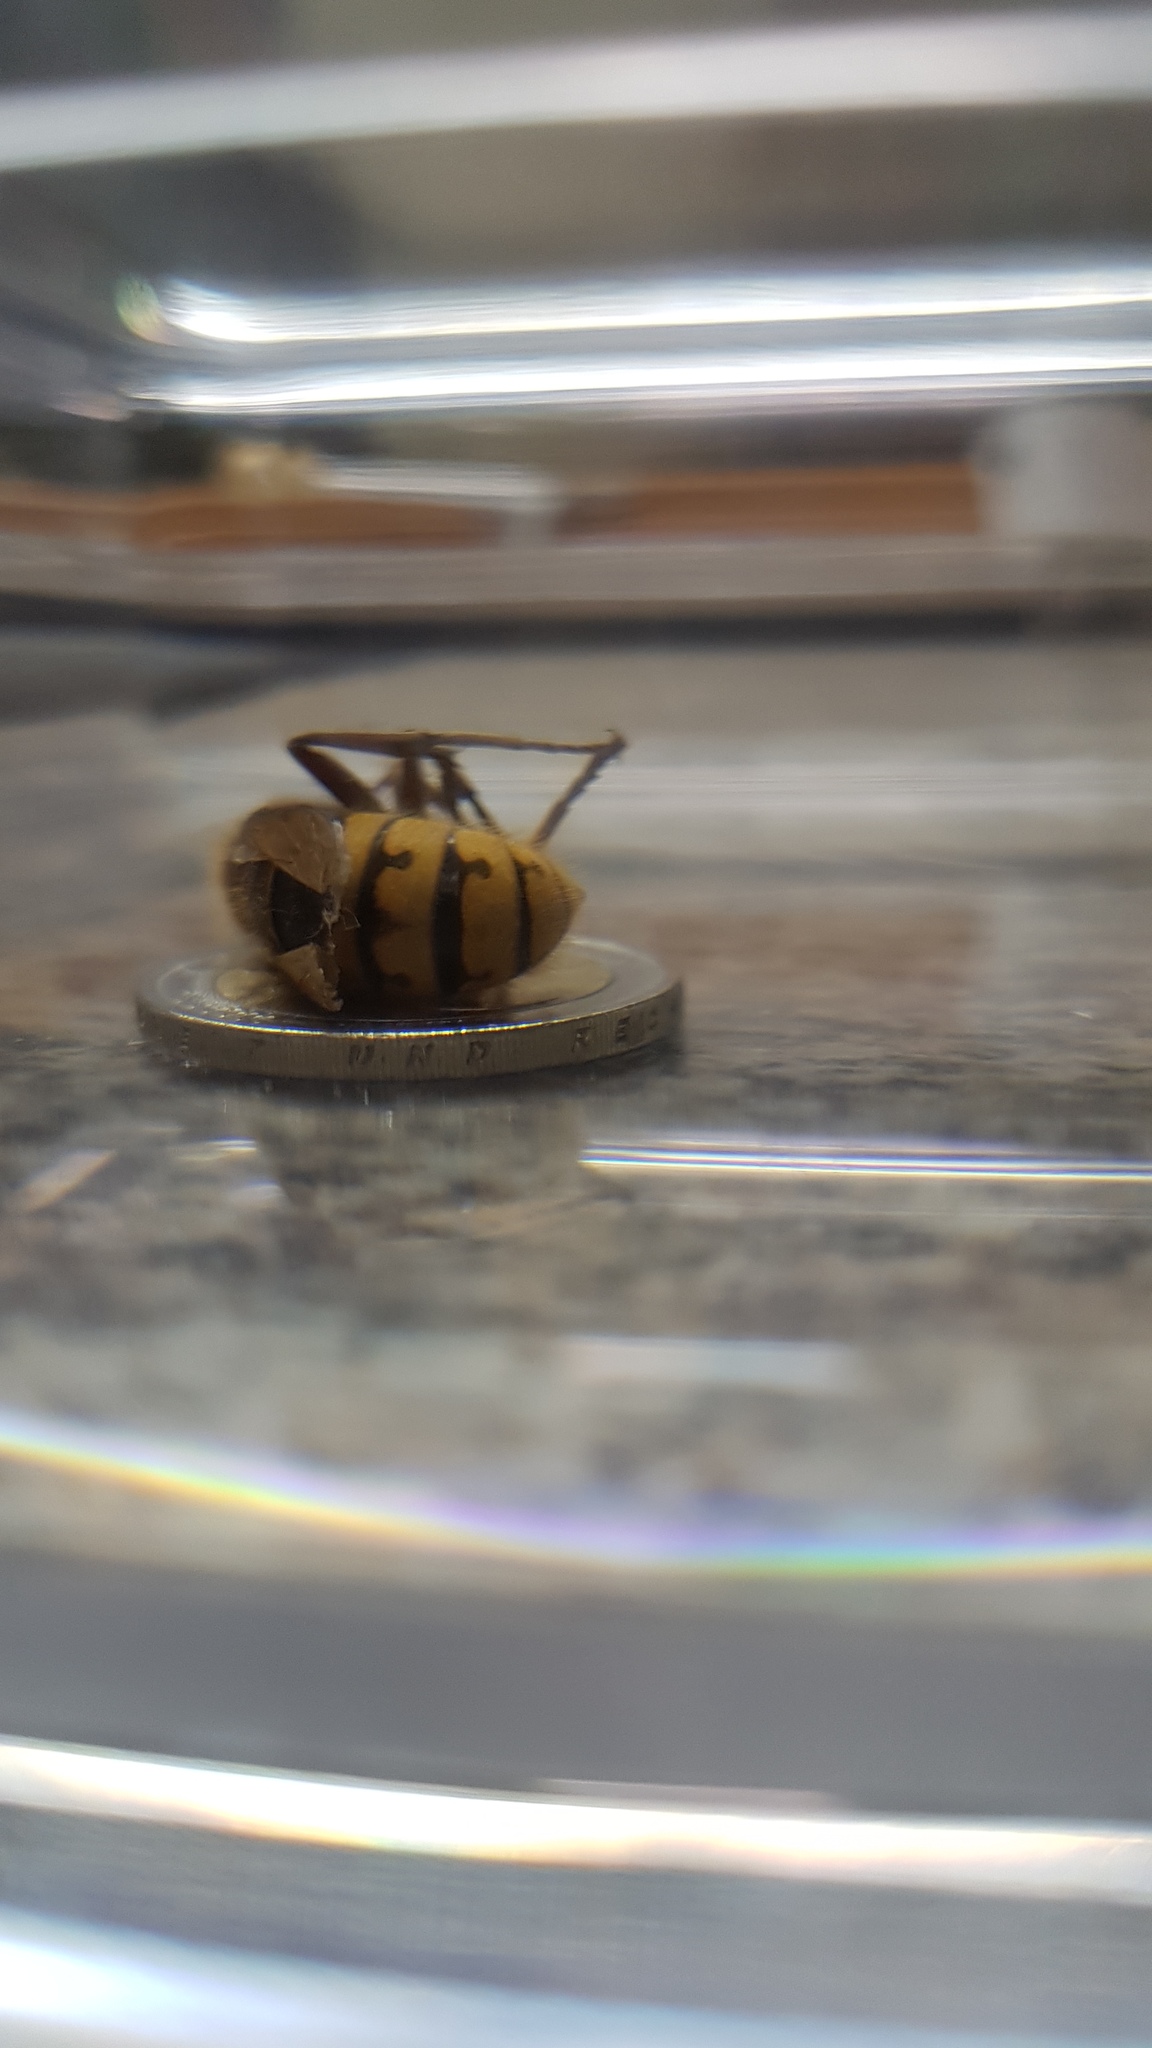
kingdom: Animalia
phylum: Arthropoda
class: Insecta
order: Hymenoptera
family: Vespidae
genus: Vespa
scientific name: Vespa crabro
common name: Hornet
